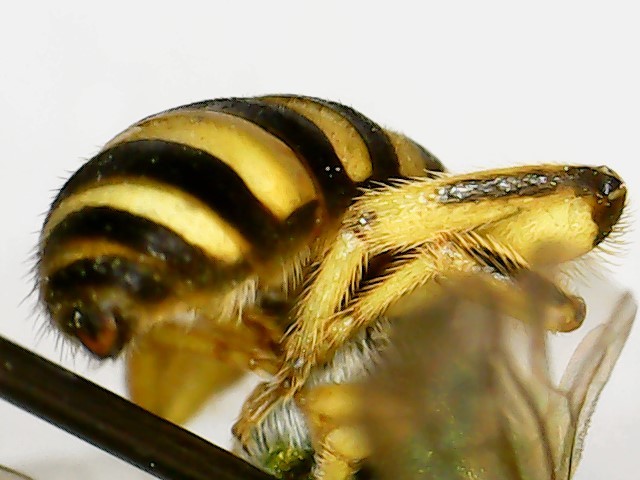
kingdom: Animalia
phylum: Arthropoda
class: Insecta
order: Hymenoptera
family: Halictidae
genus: Agapostemon
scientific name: Agapostemon sericeus
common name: Silky striped sweat bee
